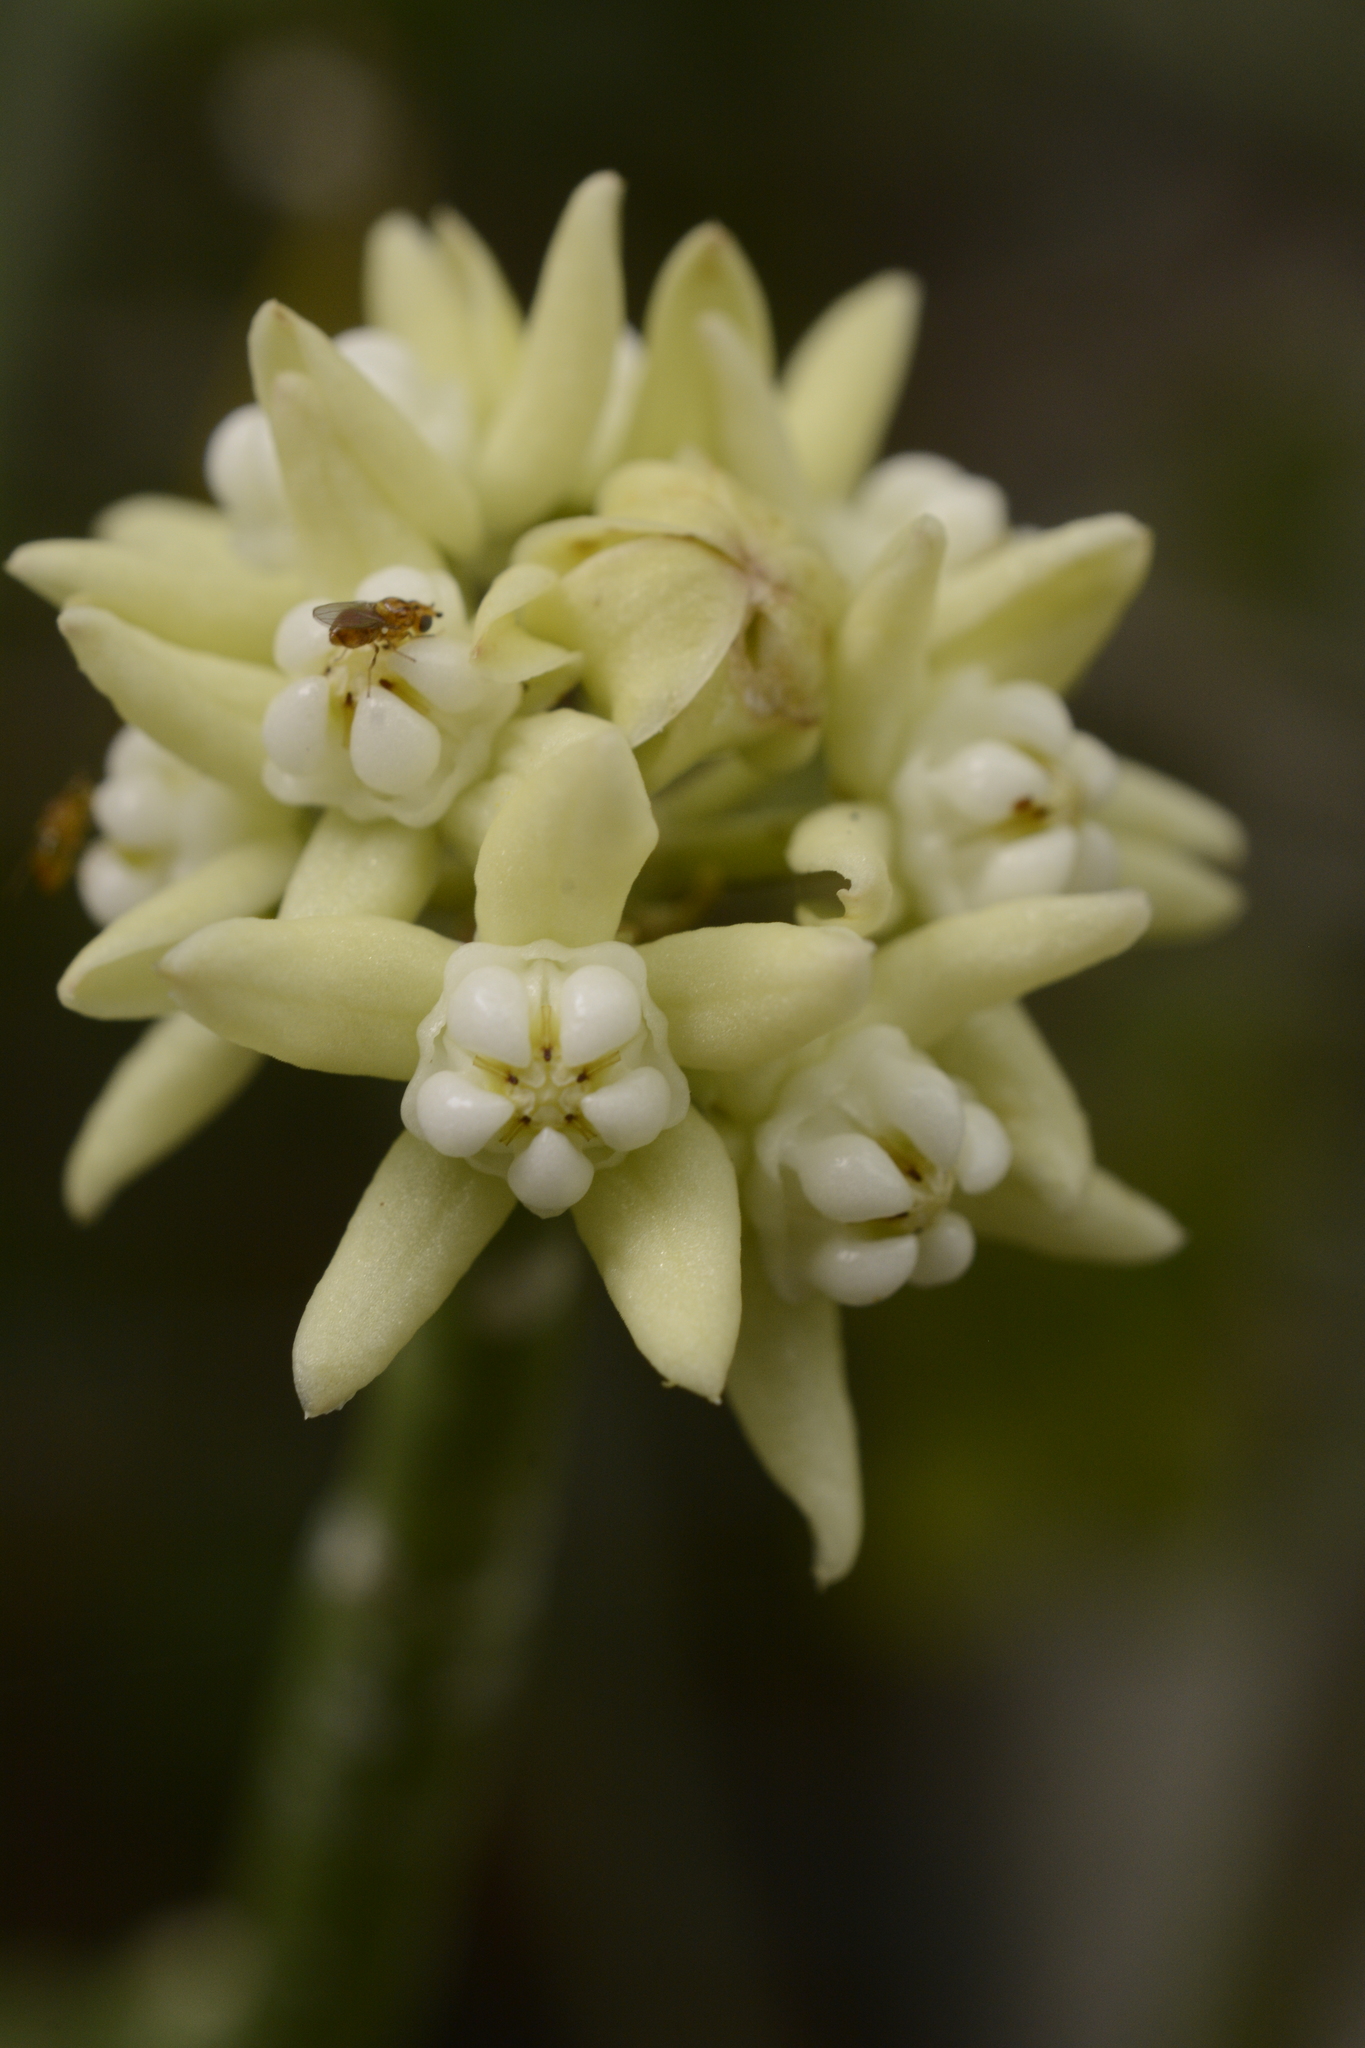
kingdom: Plantae
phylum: Tracheophyta
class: Magnoliopsida
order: Gentianales
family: Apocynaceae
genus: Cynanchum
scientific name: Cynanchum acidum
